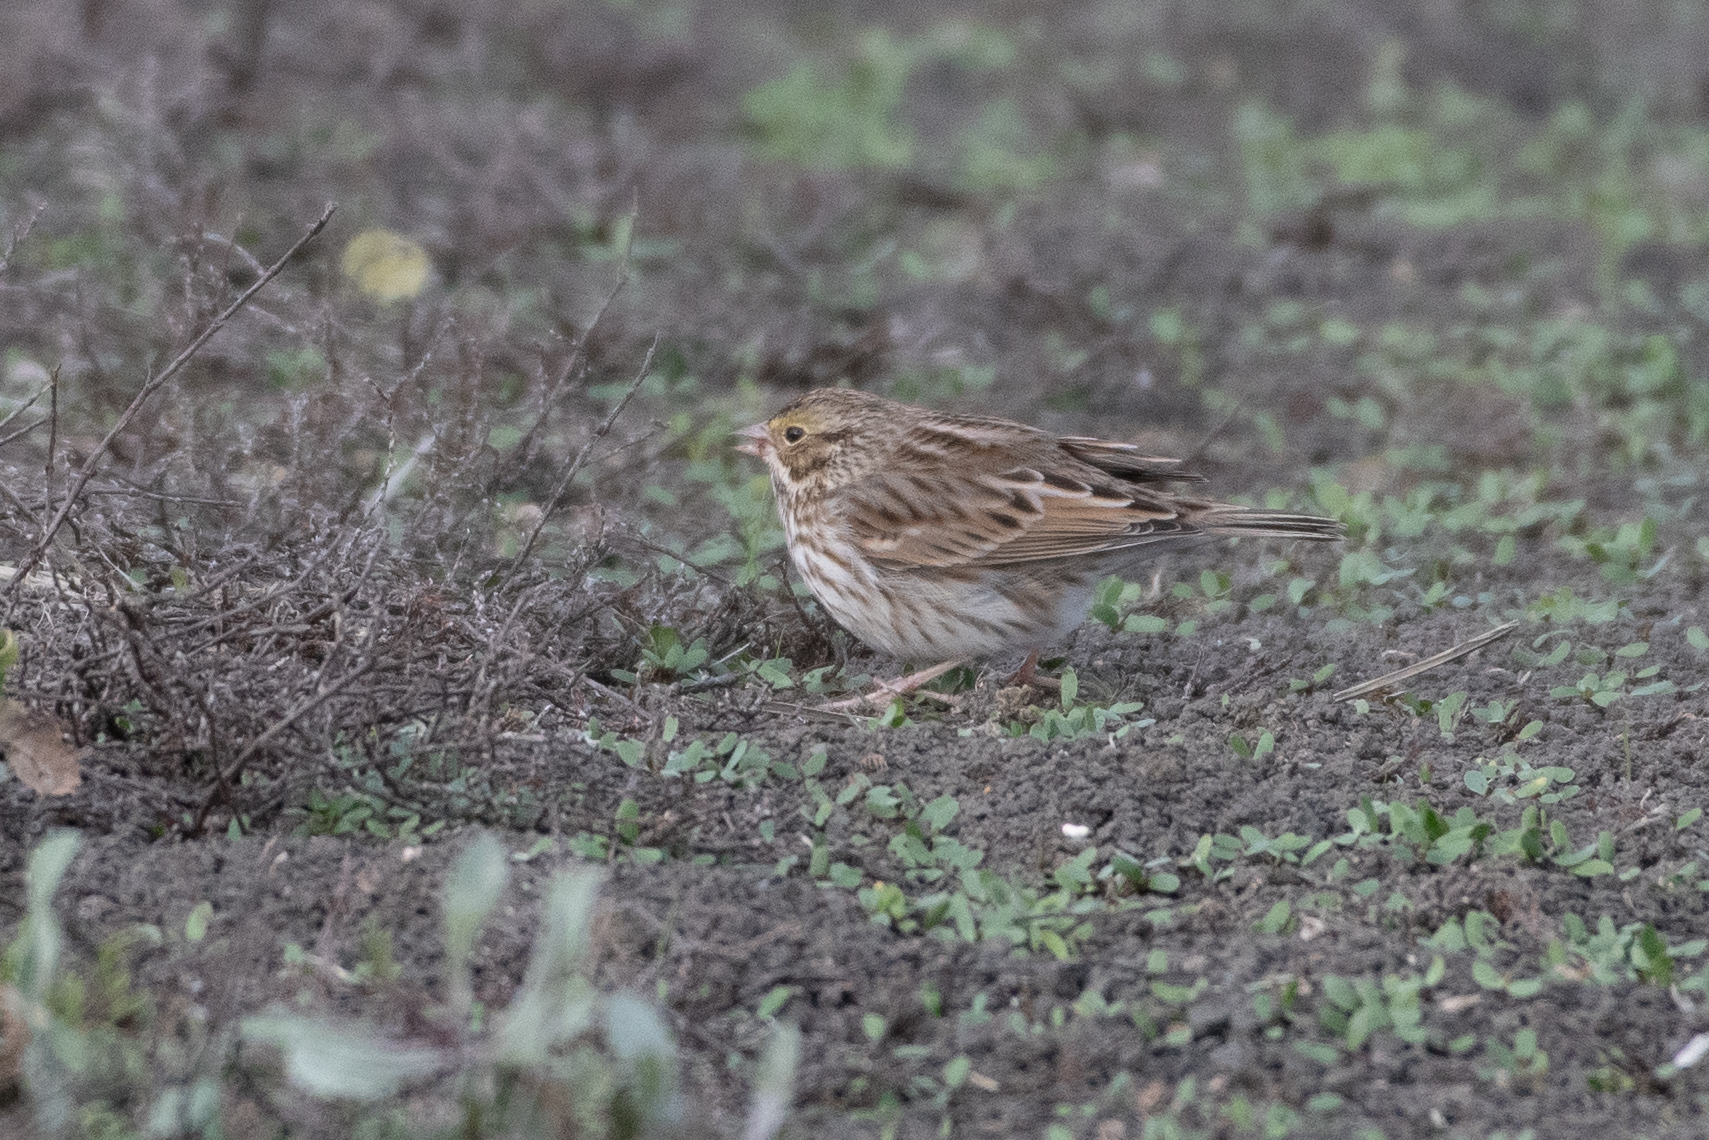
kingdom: Animalia
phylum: Chordata
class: Aves
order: Passeriformes
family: Passerellidae
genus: Passerculus
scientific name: Passerculus sandwichensis
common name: Savannah sparrow
